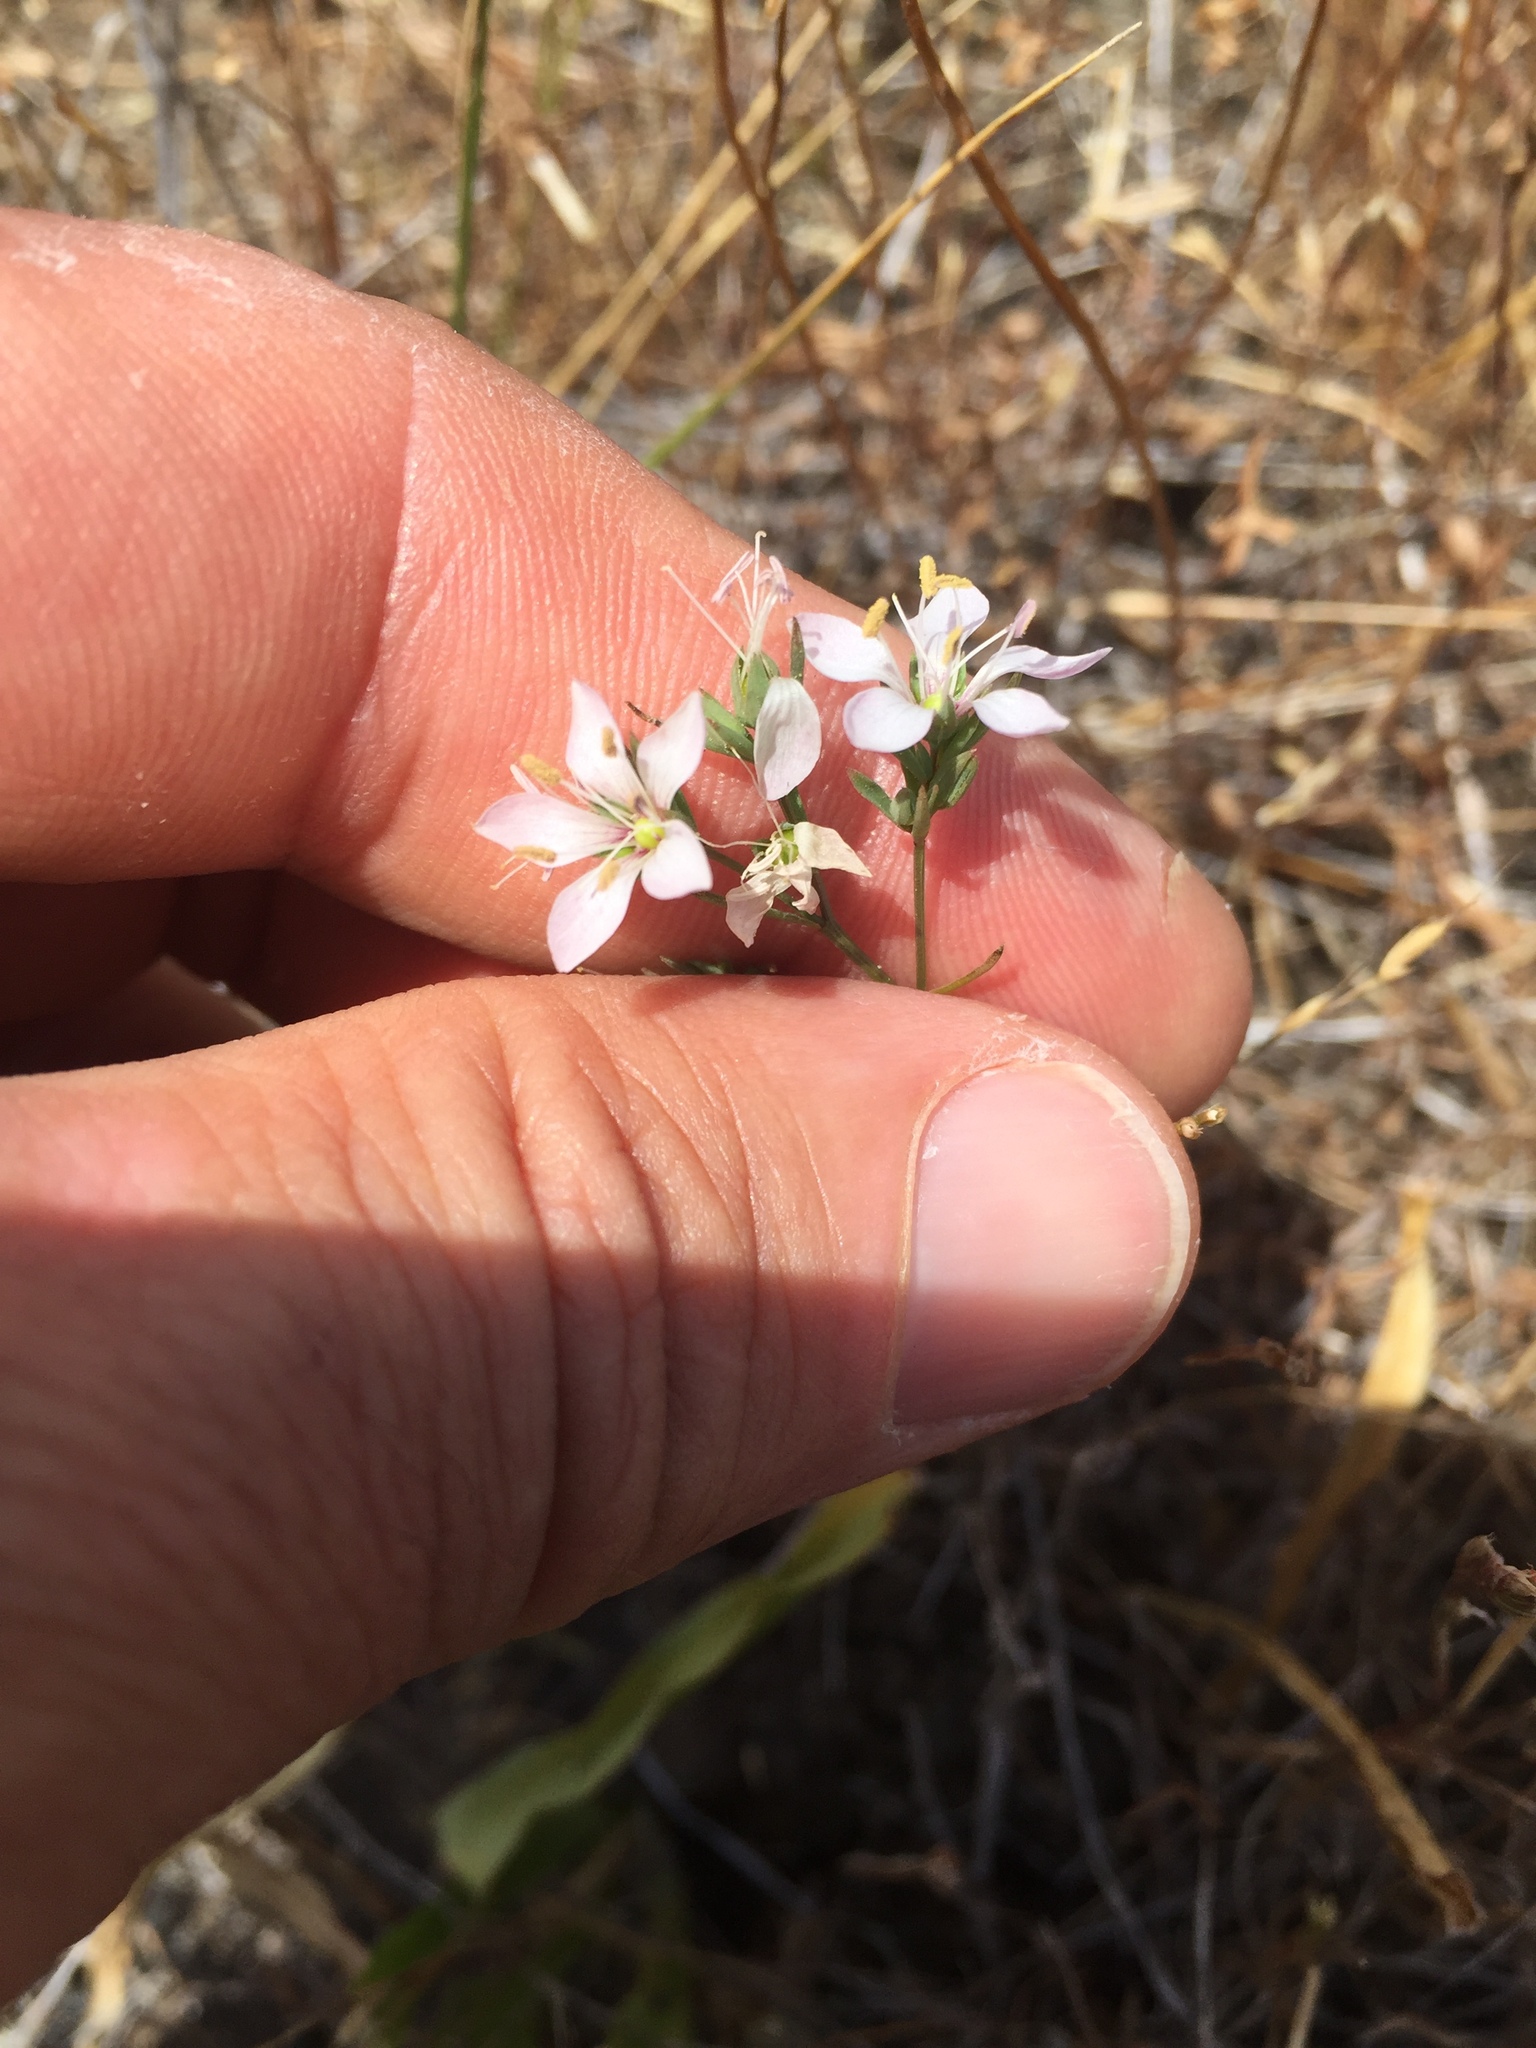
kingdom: Plantae
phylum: Tracheophyta
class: Magnoliopsida
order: Malpighiales
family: Linaceae
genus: Hesperolinon
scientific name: Hesperolinon congestum
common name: Marin dwarf-flax
